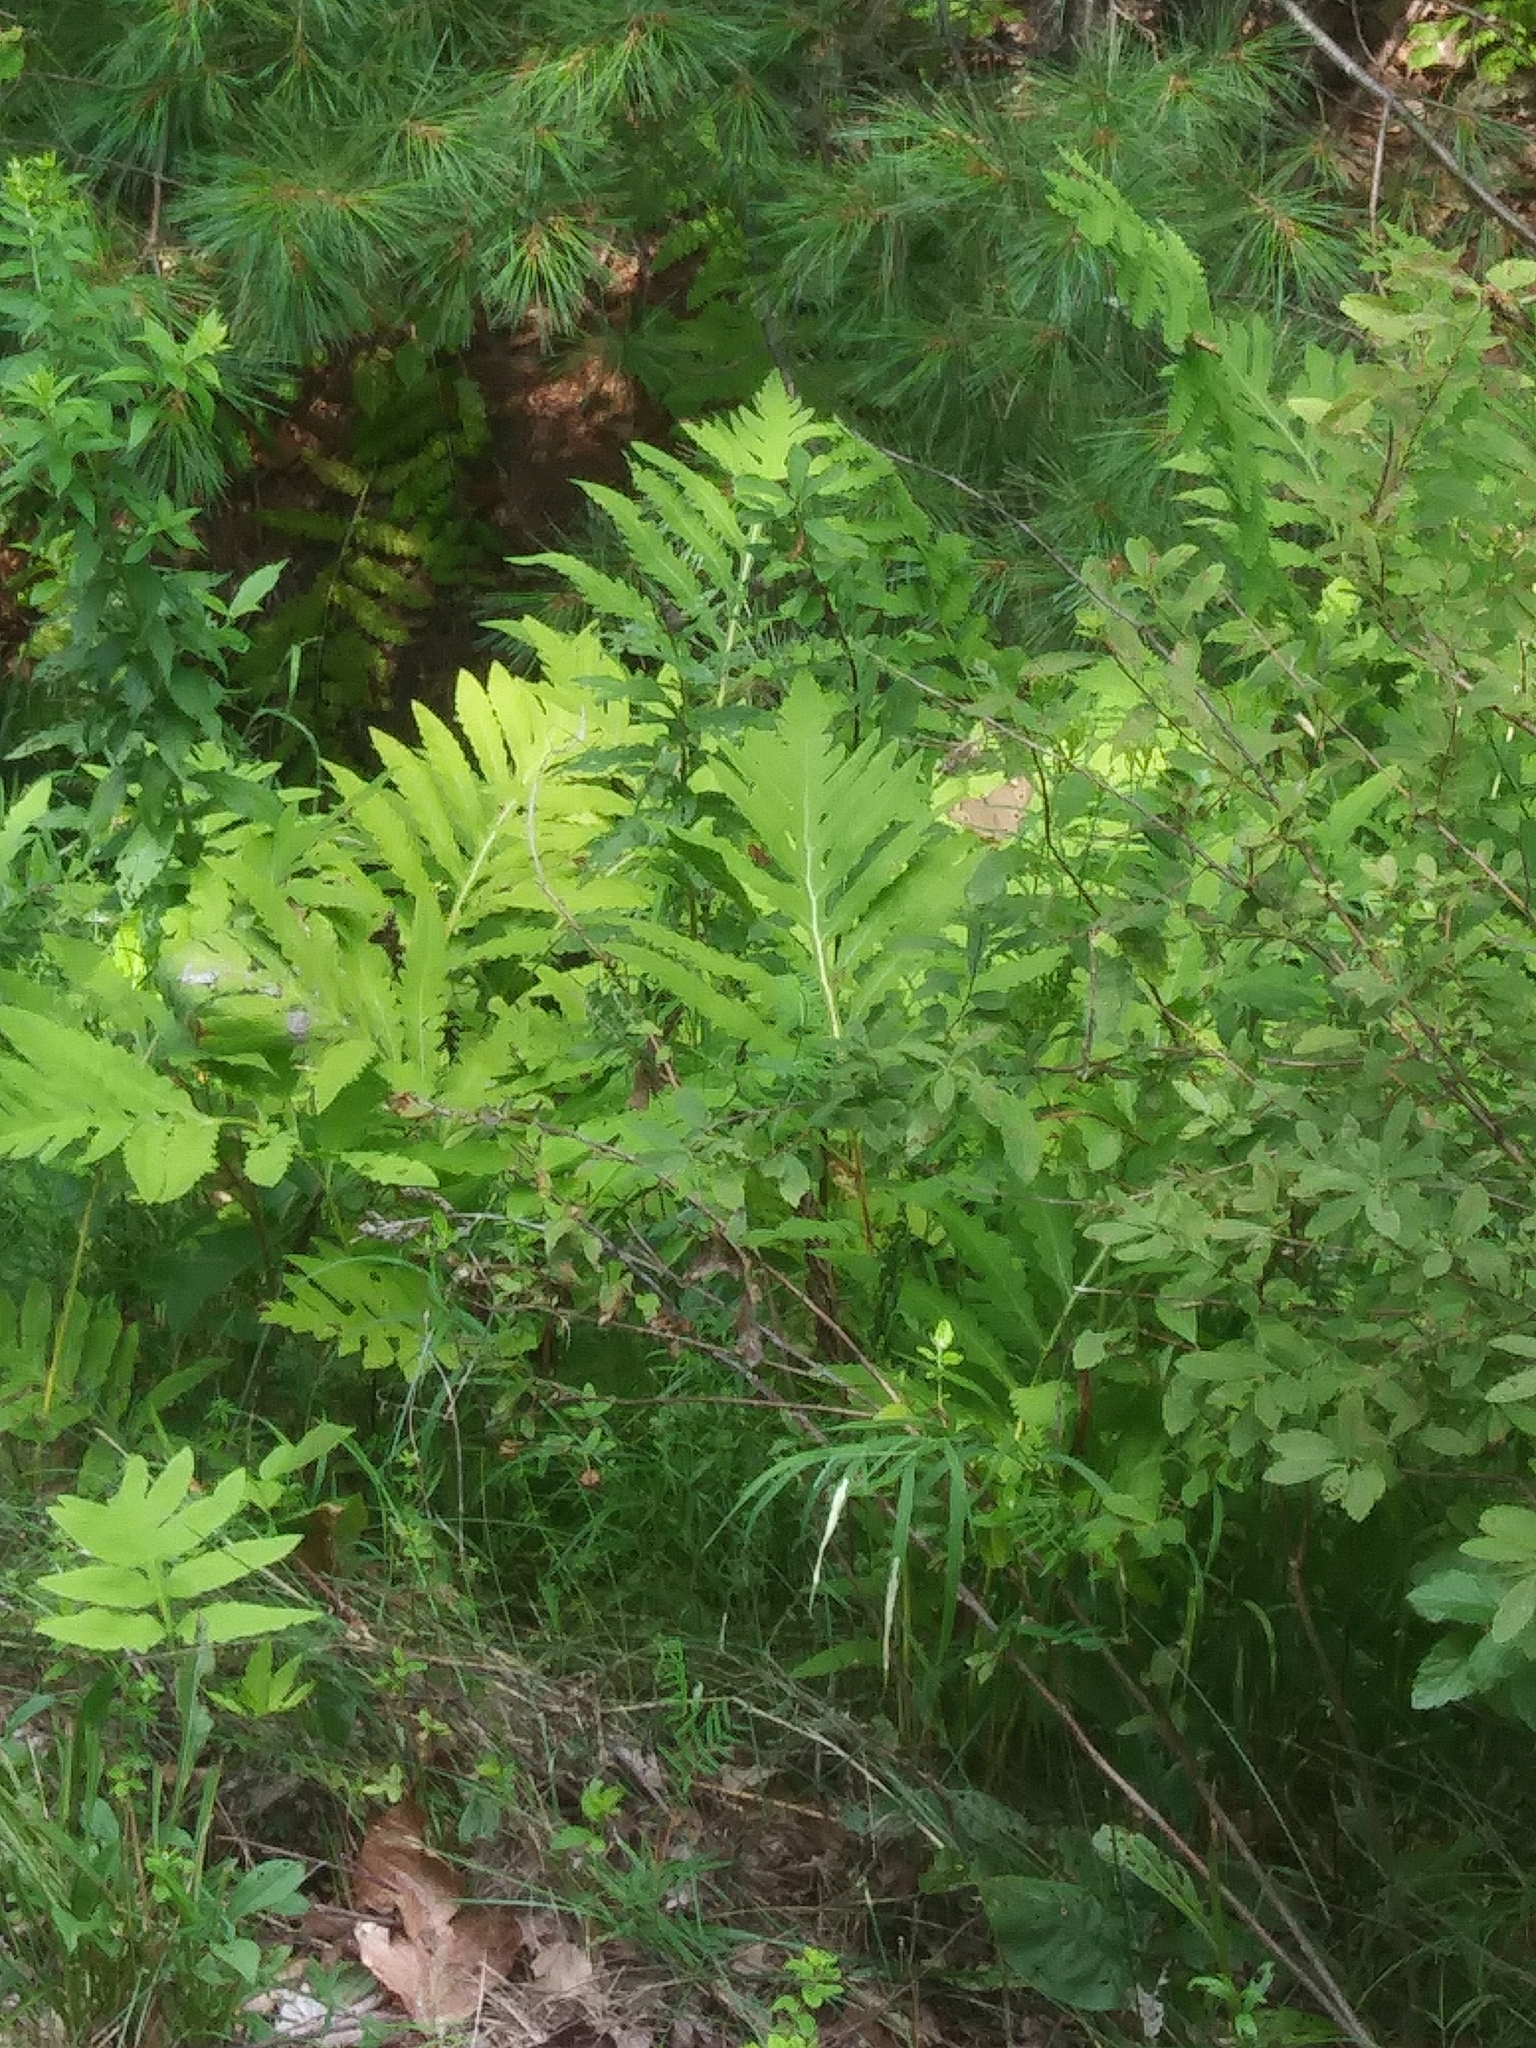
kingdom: Animalia
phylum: Arthropoda
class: Insecta
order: Lepidoptera
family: Nymphalidae
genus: Cercyonis
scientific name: Cercyonis pegala
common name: Common wood-nymph
